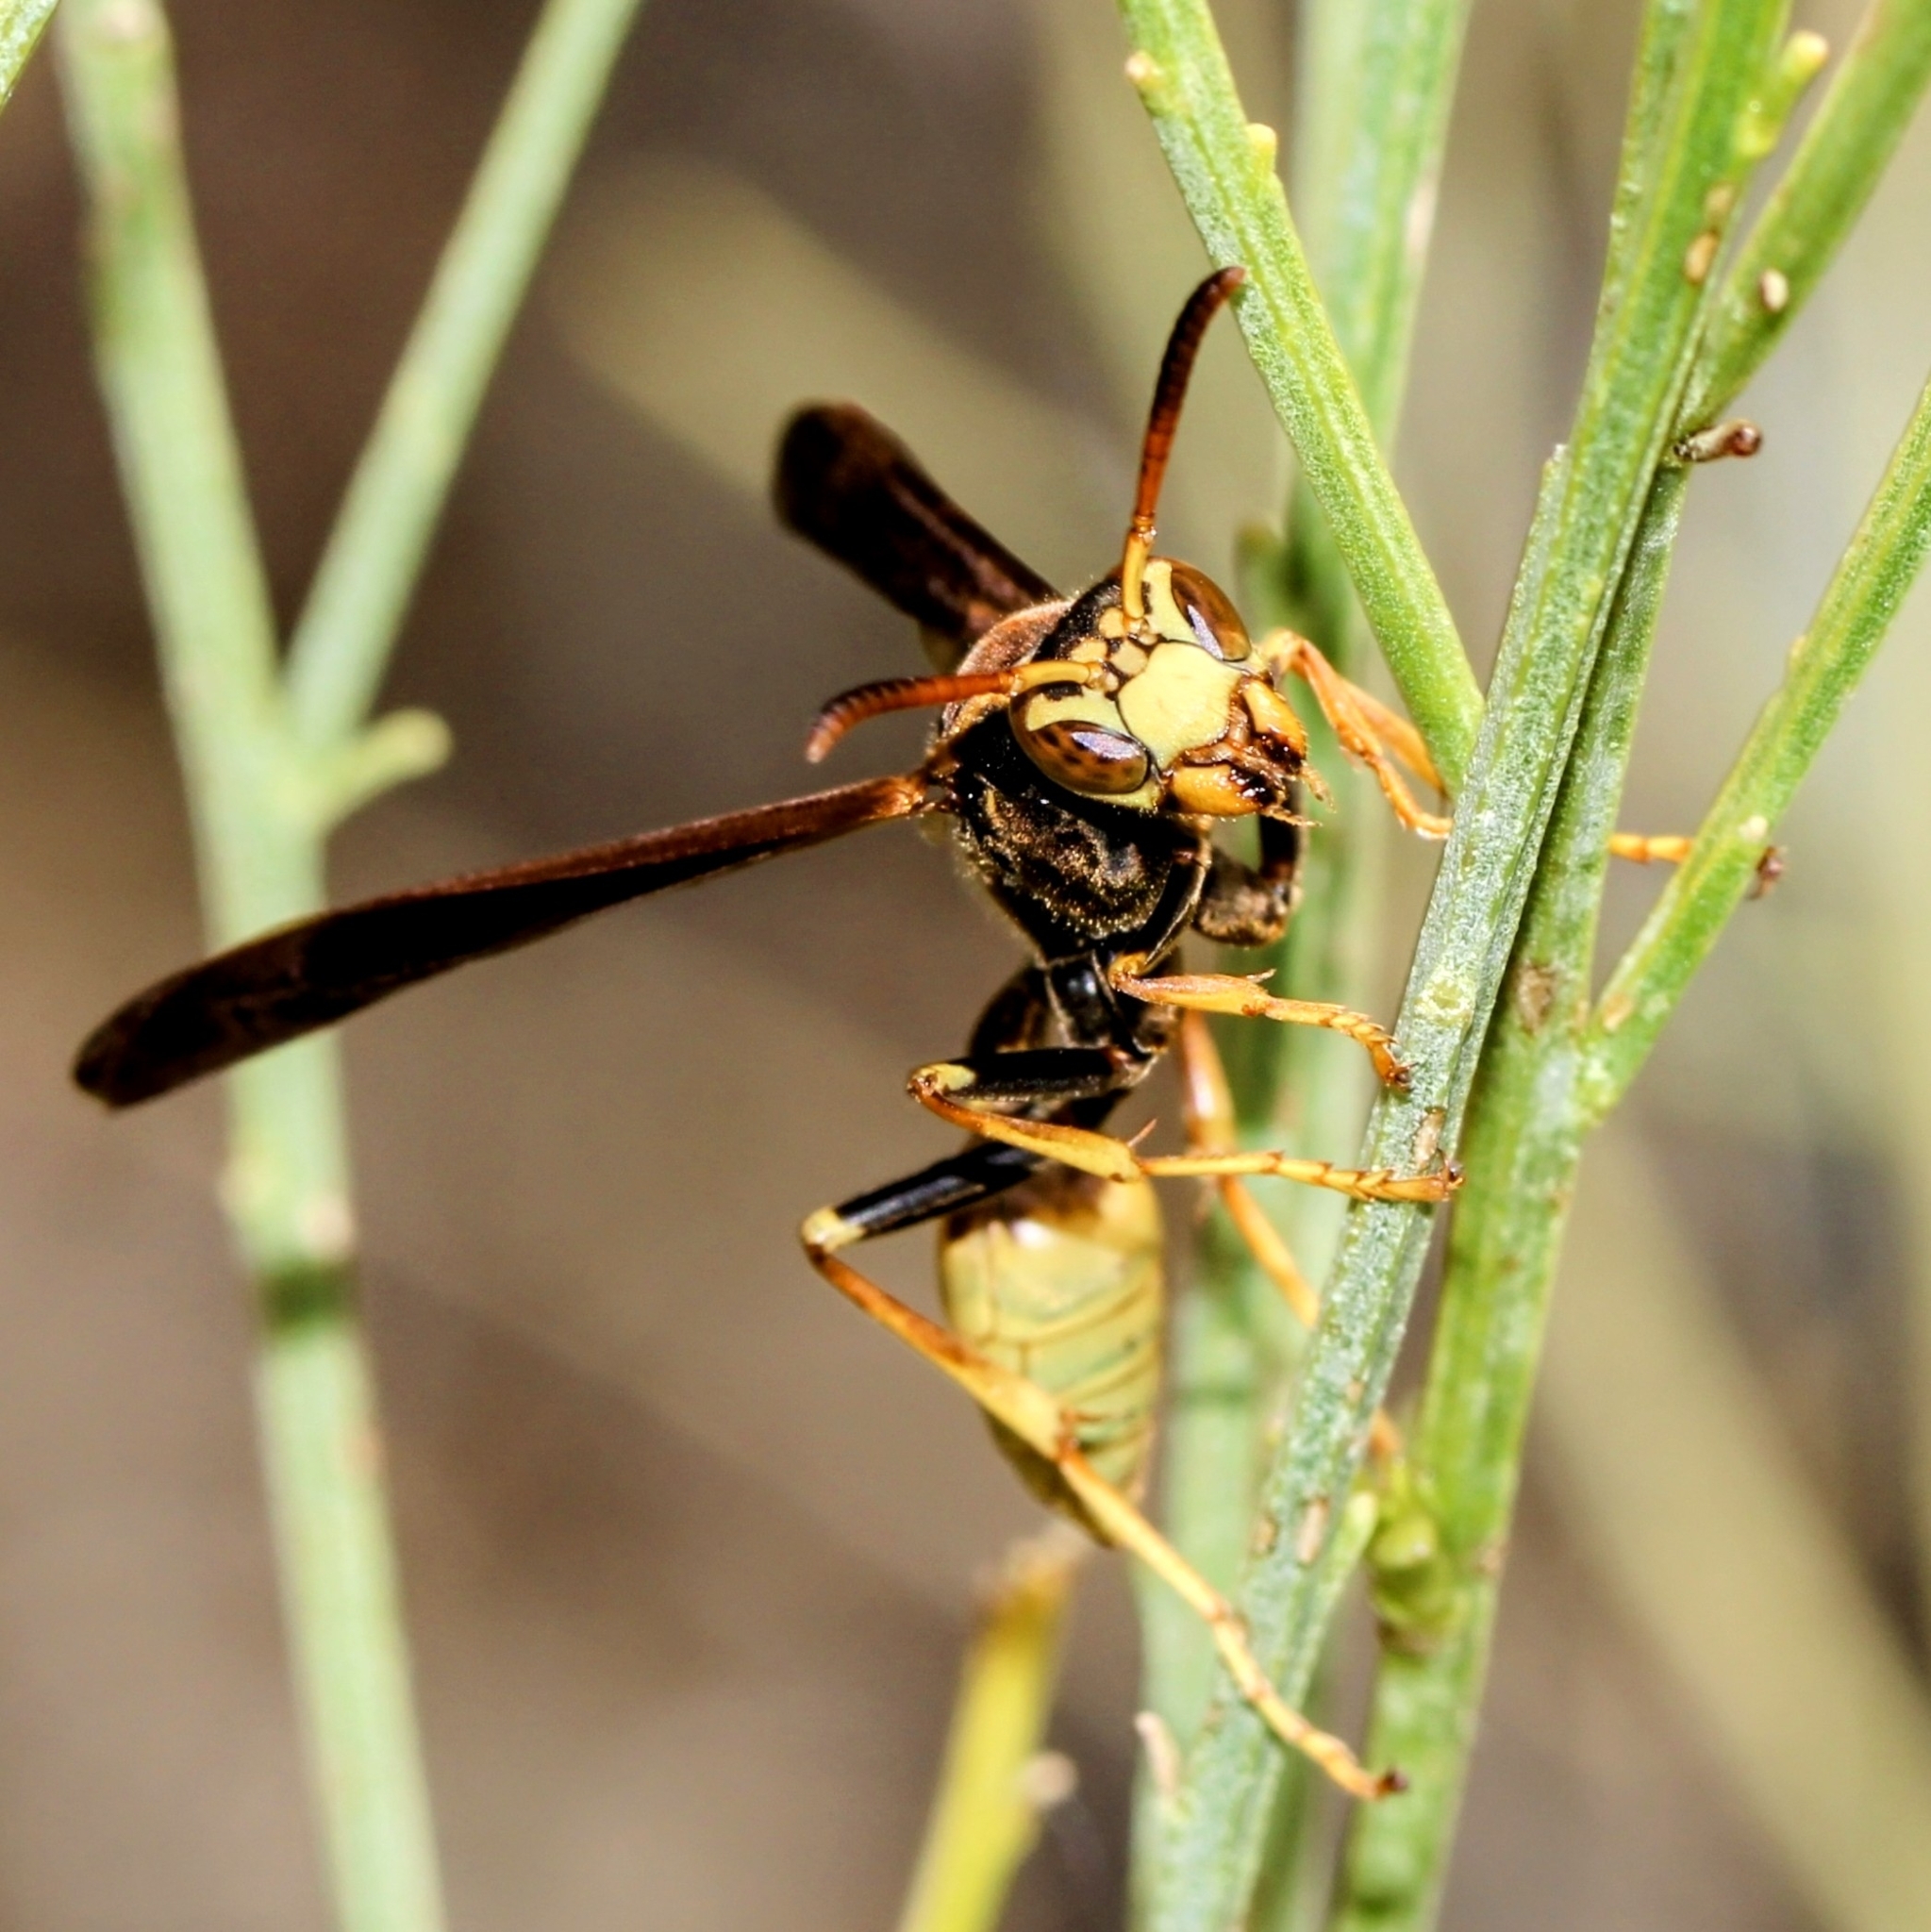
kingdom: Animalia
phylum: Arthropoda
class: Insecta
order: Hymenoptera
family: Vespidae
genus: Mischocyttarus
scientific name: Mischocyttarus navajo
